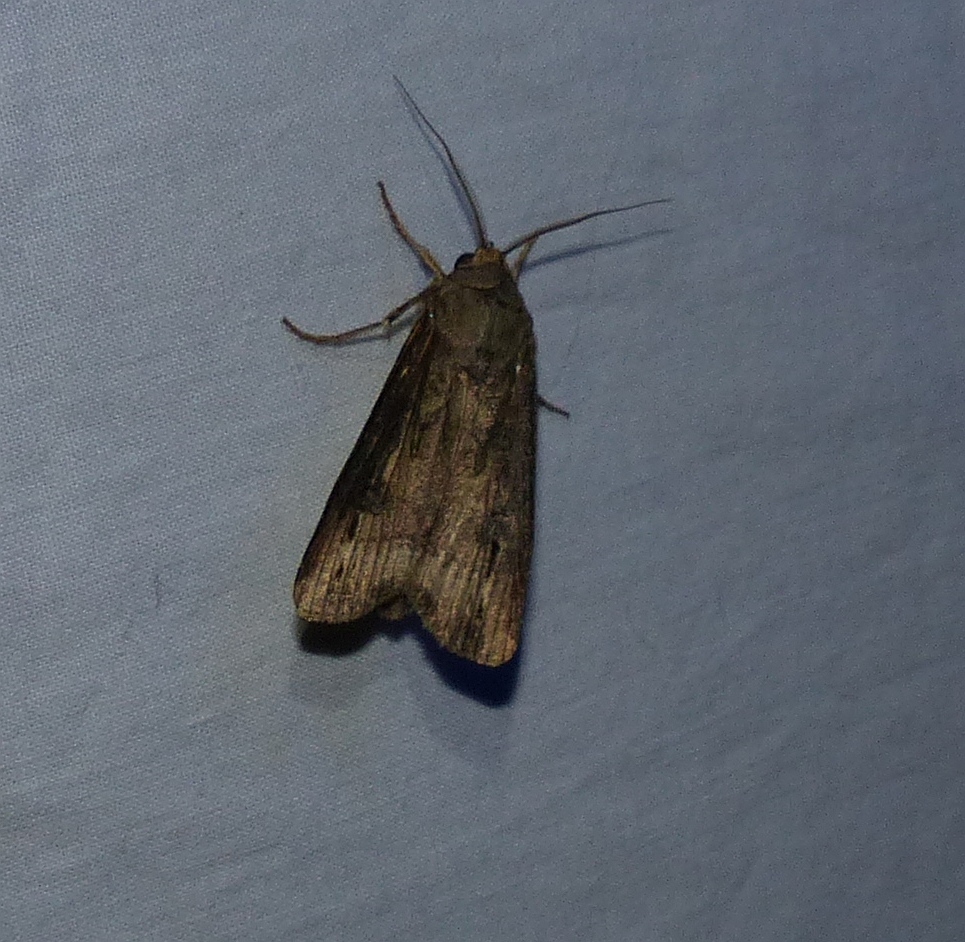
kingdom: Animalia
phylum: Arthropoda
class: Insecta
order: Lepidoptera
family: Noctuidae
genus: Agrotis
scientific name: Agrotis ipsilon
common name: Dark sword-grass
